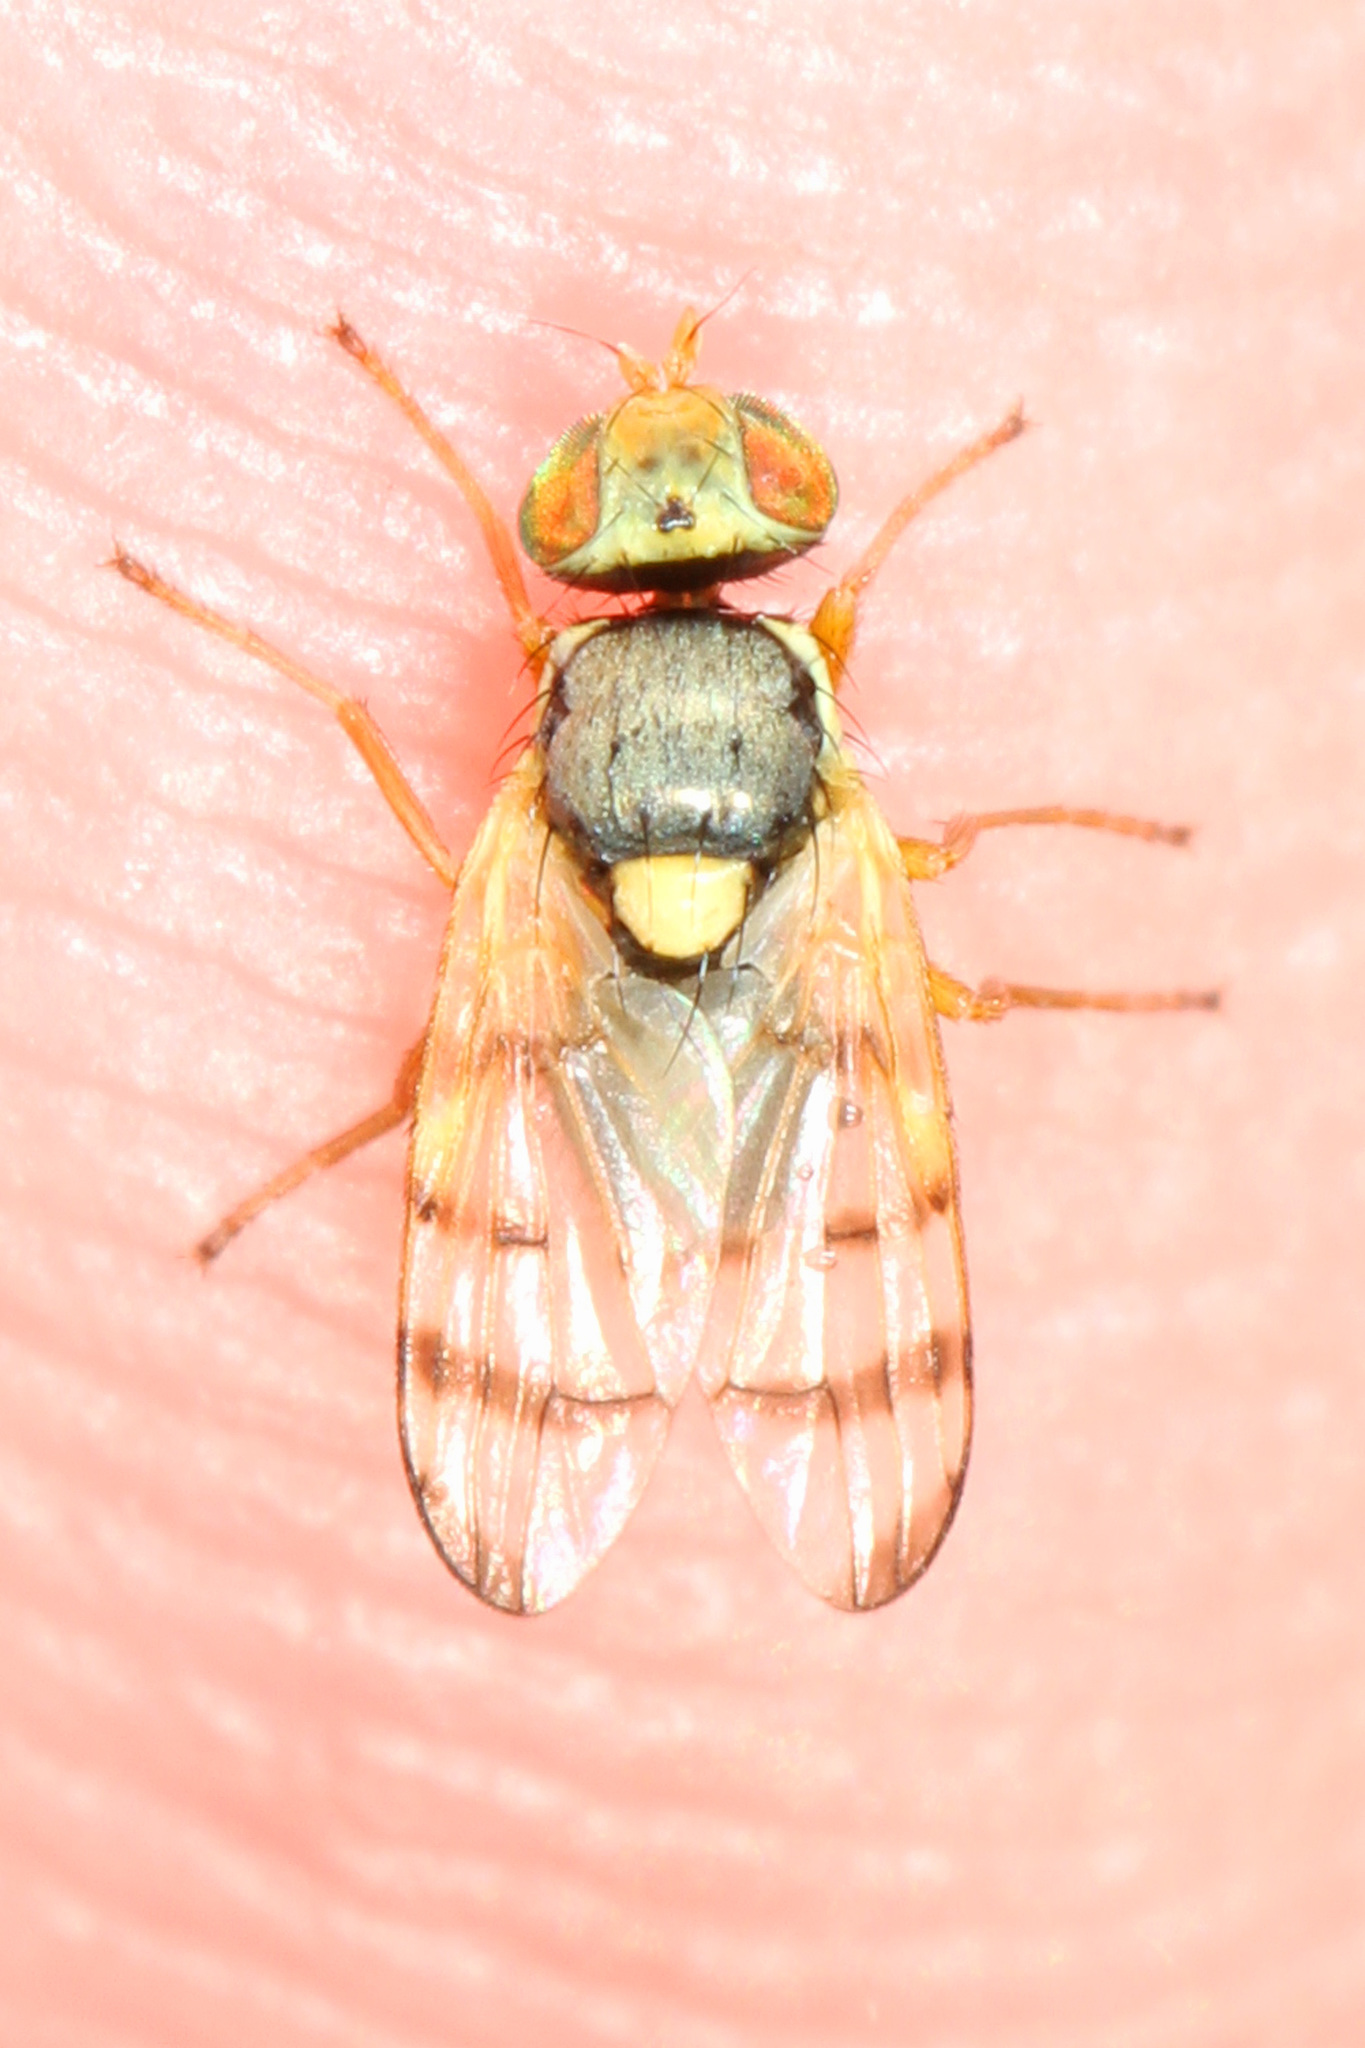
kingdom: Animalia
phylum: Arthropoda
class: Insecta
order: Diptera
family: Tephritidae
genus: Urophora
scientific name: Urophora affinis
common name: Fruit fly
